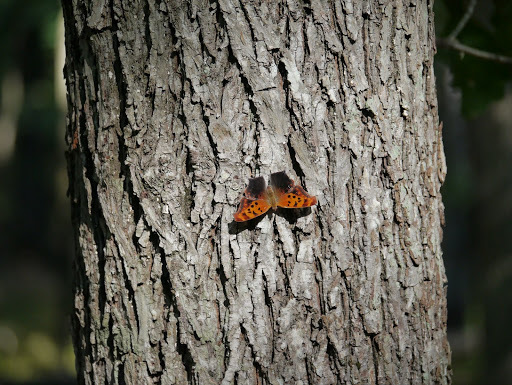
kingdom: Animalia
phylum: Arthropoda
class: Insecta
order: Lepidoptera
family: Nymphalidae
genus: Polygonia
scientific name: Polygonia interrogationis
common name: Question mark
